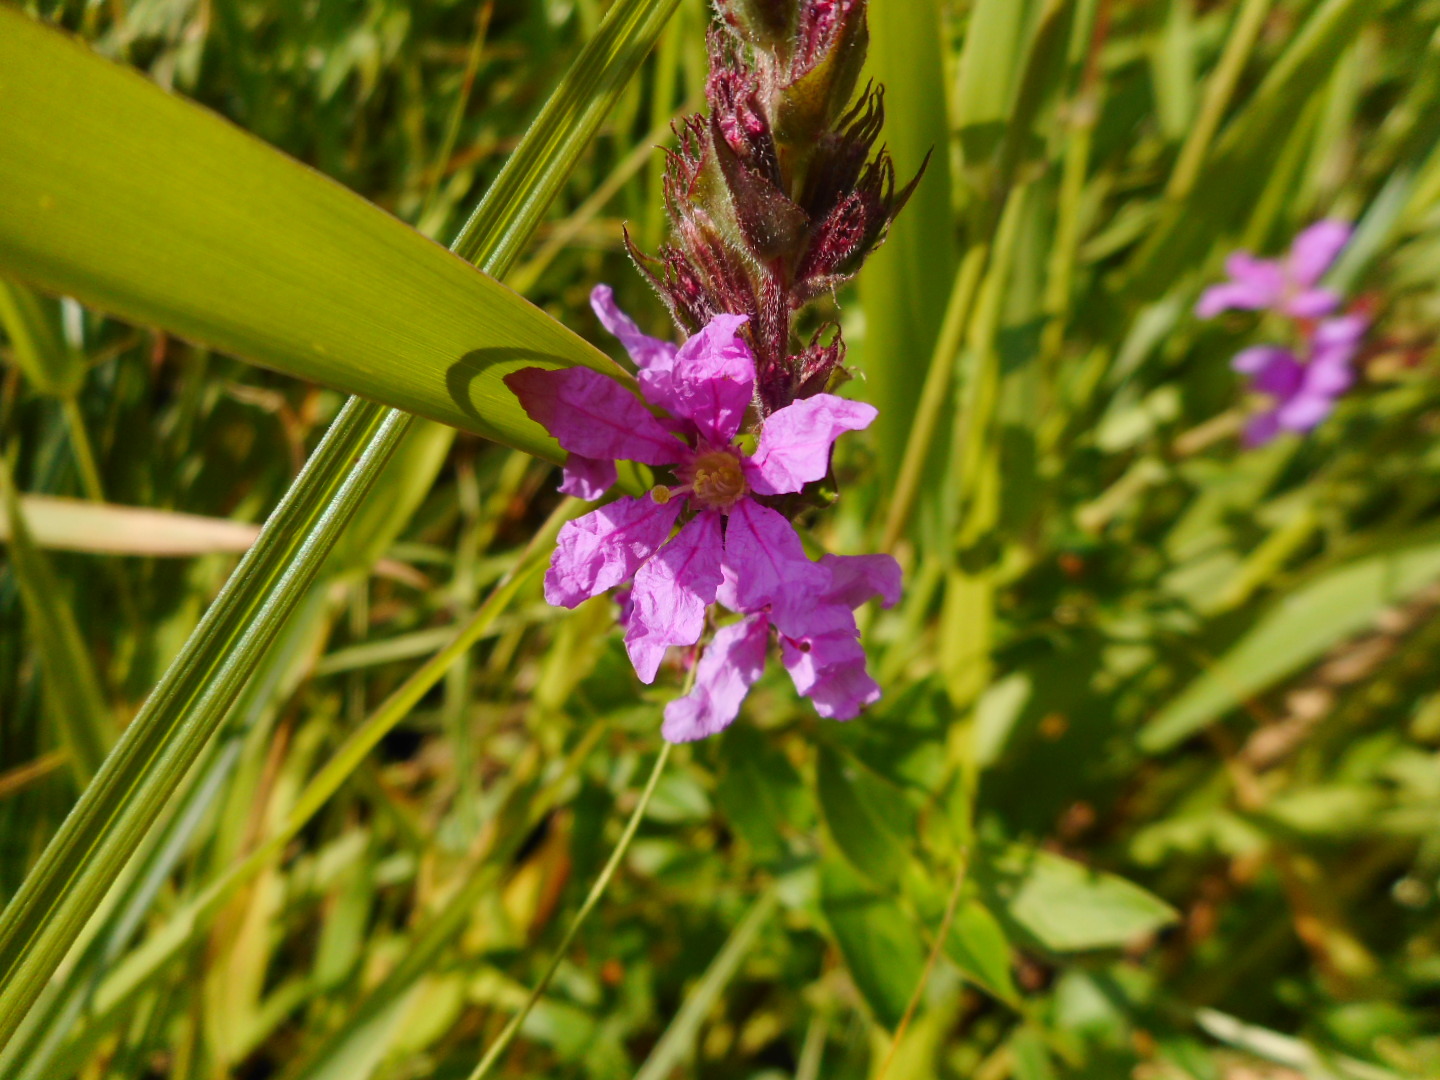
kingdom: Plantae
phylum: Tracheophyta
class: Magnoliopsida
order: Myrtales
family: Lythraceae
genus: Lythrum
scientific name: Lythrum salicaria
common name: Purple loosestrife
